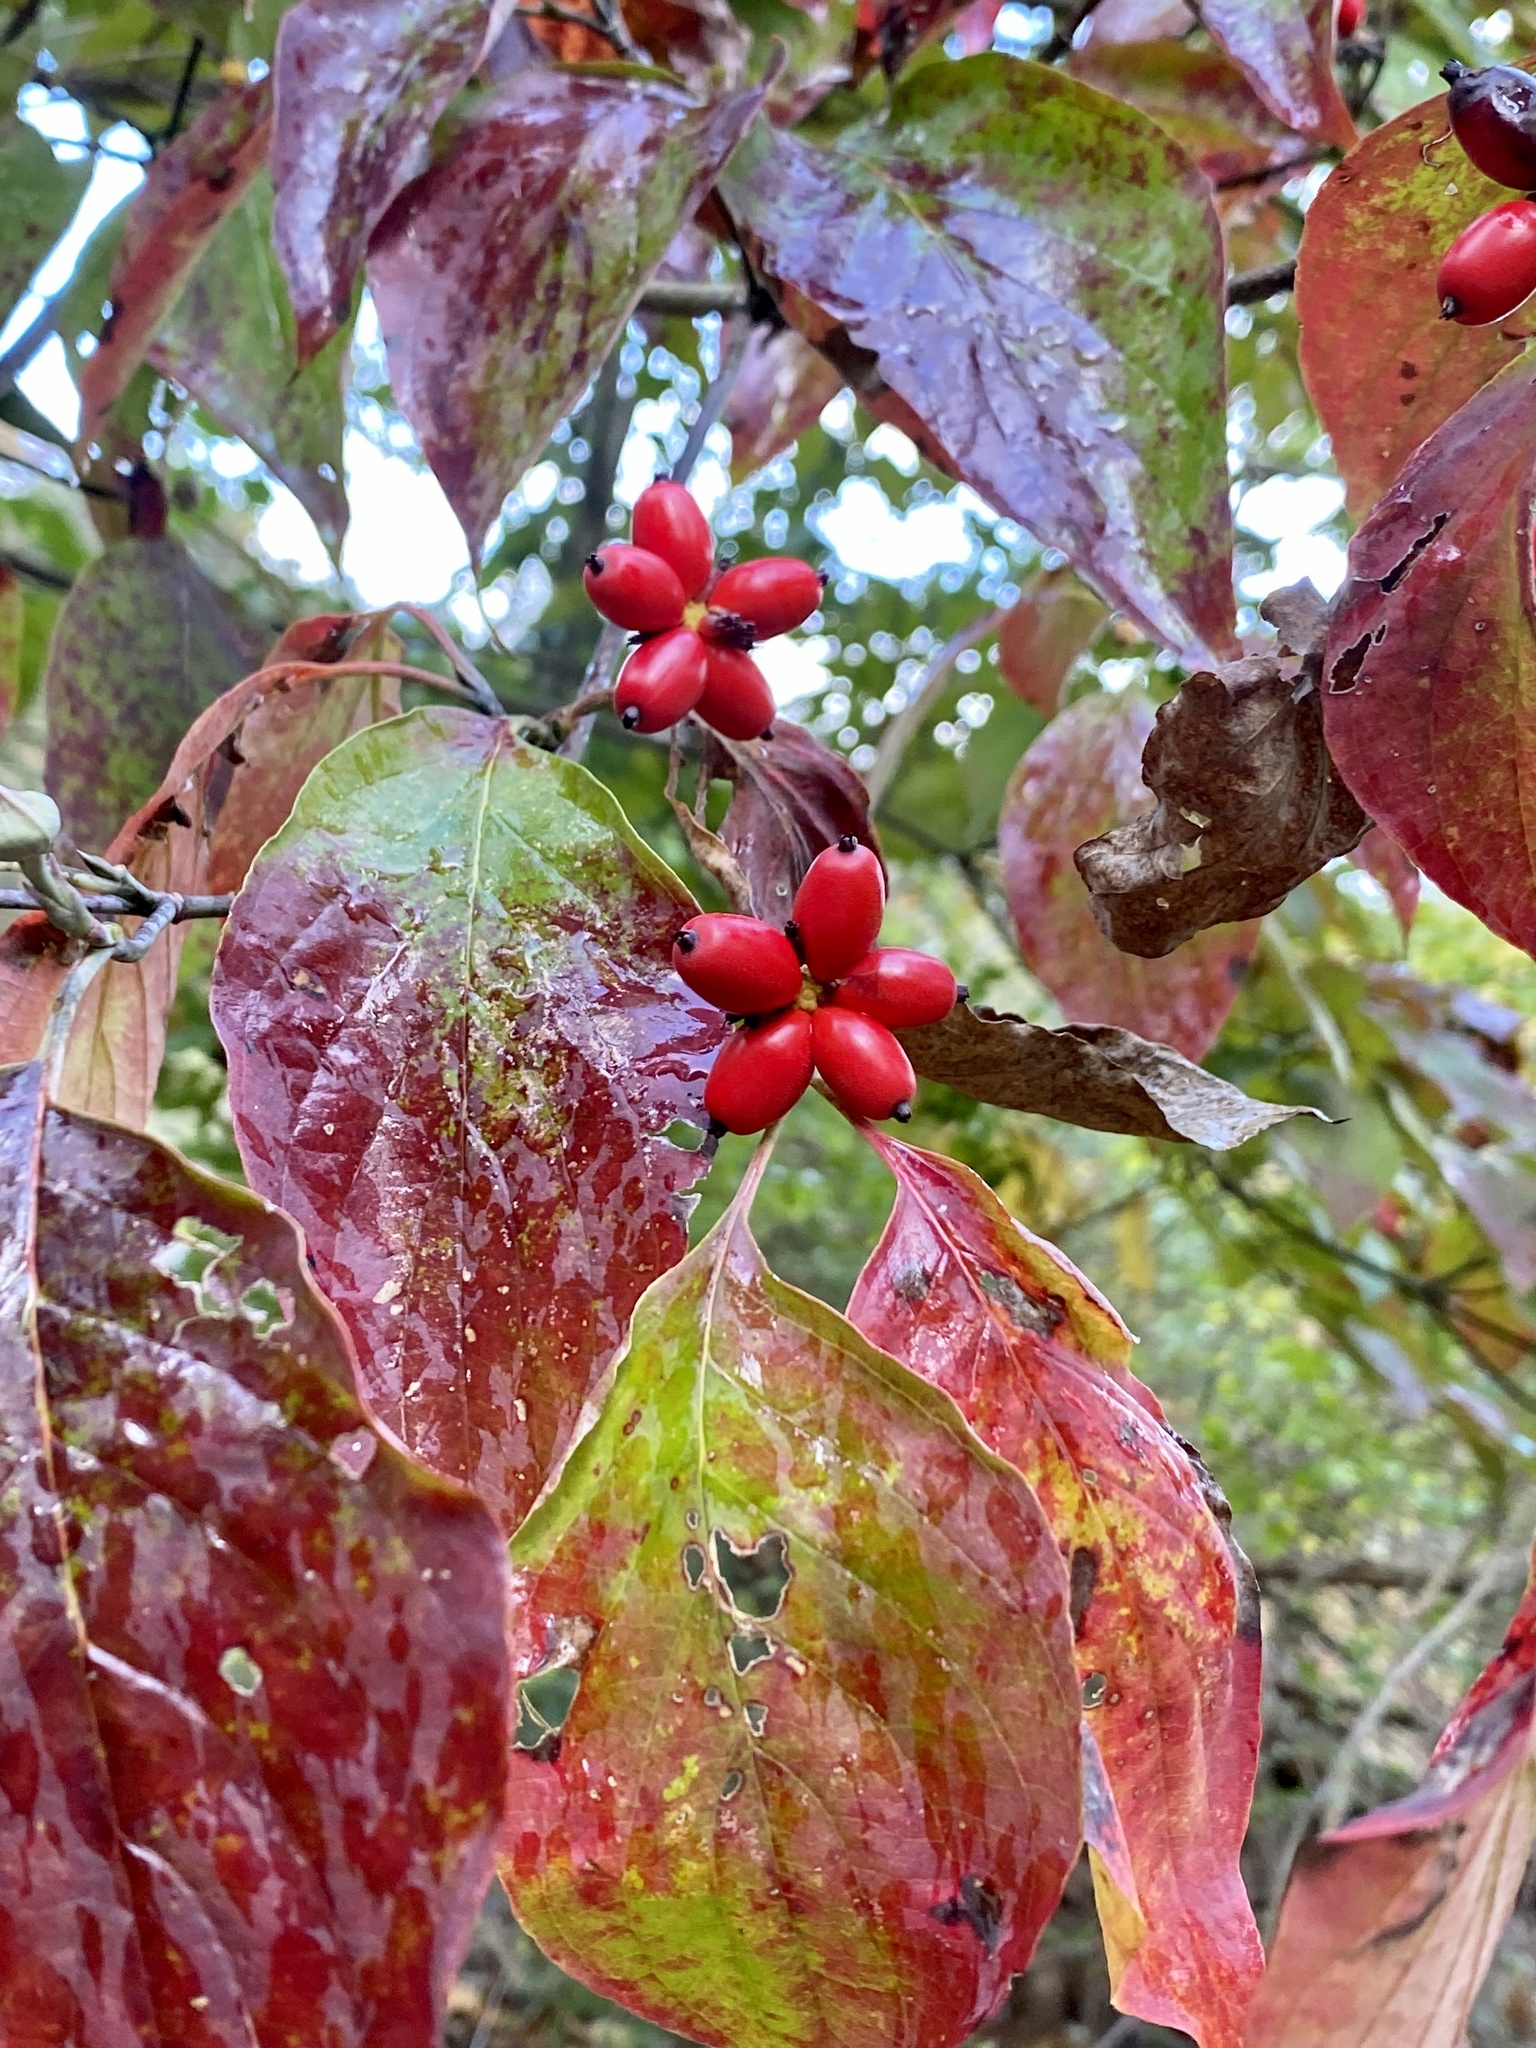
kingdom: Plantae
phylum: Tracheophyta
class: Magnoliopsida
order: Cornales
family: Cornaceae
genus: Cornus
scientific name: Cornus florida
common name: Flowering dogwood
